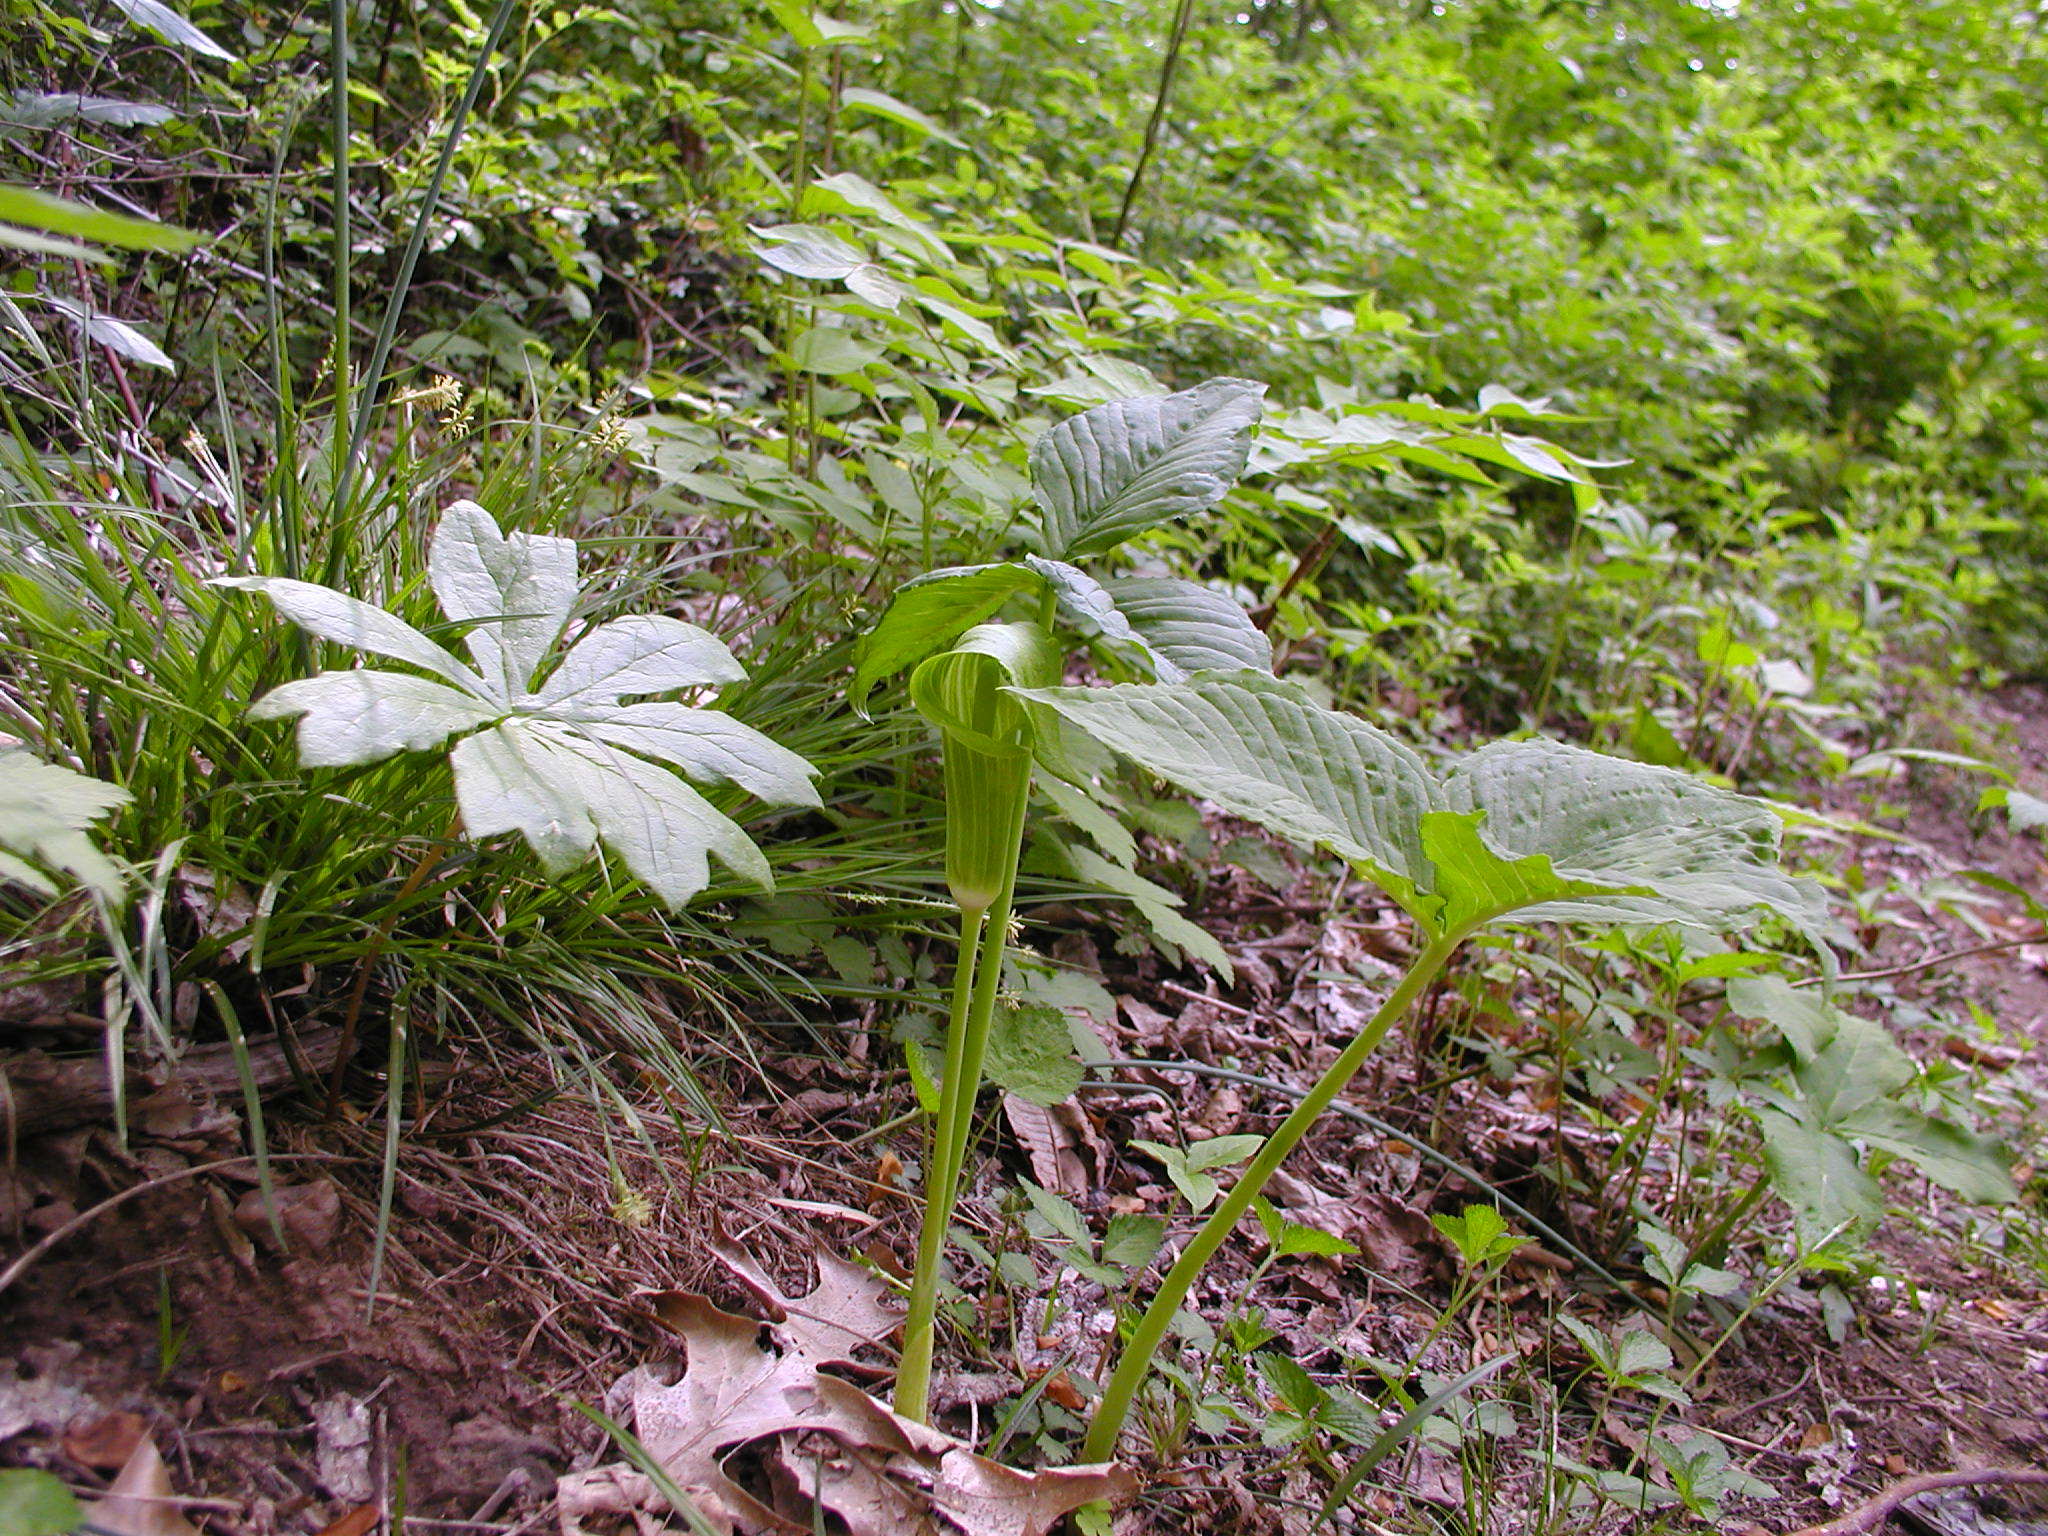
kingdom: Plantae
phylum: Tracheophyta
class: Liliopsida
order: Alismatales
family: Araceae
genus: Arisaema
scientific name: Arisaema triphyllum
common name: Jack-in-the-pulpit
